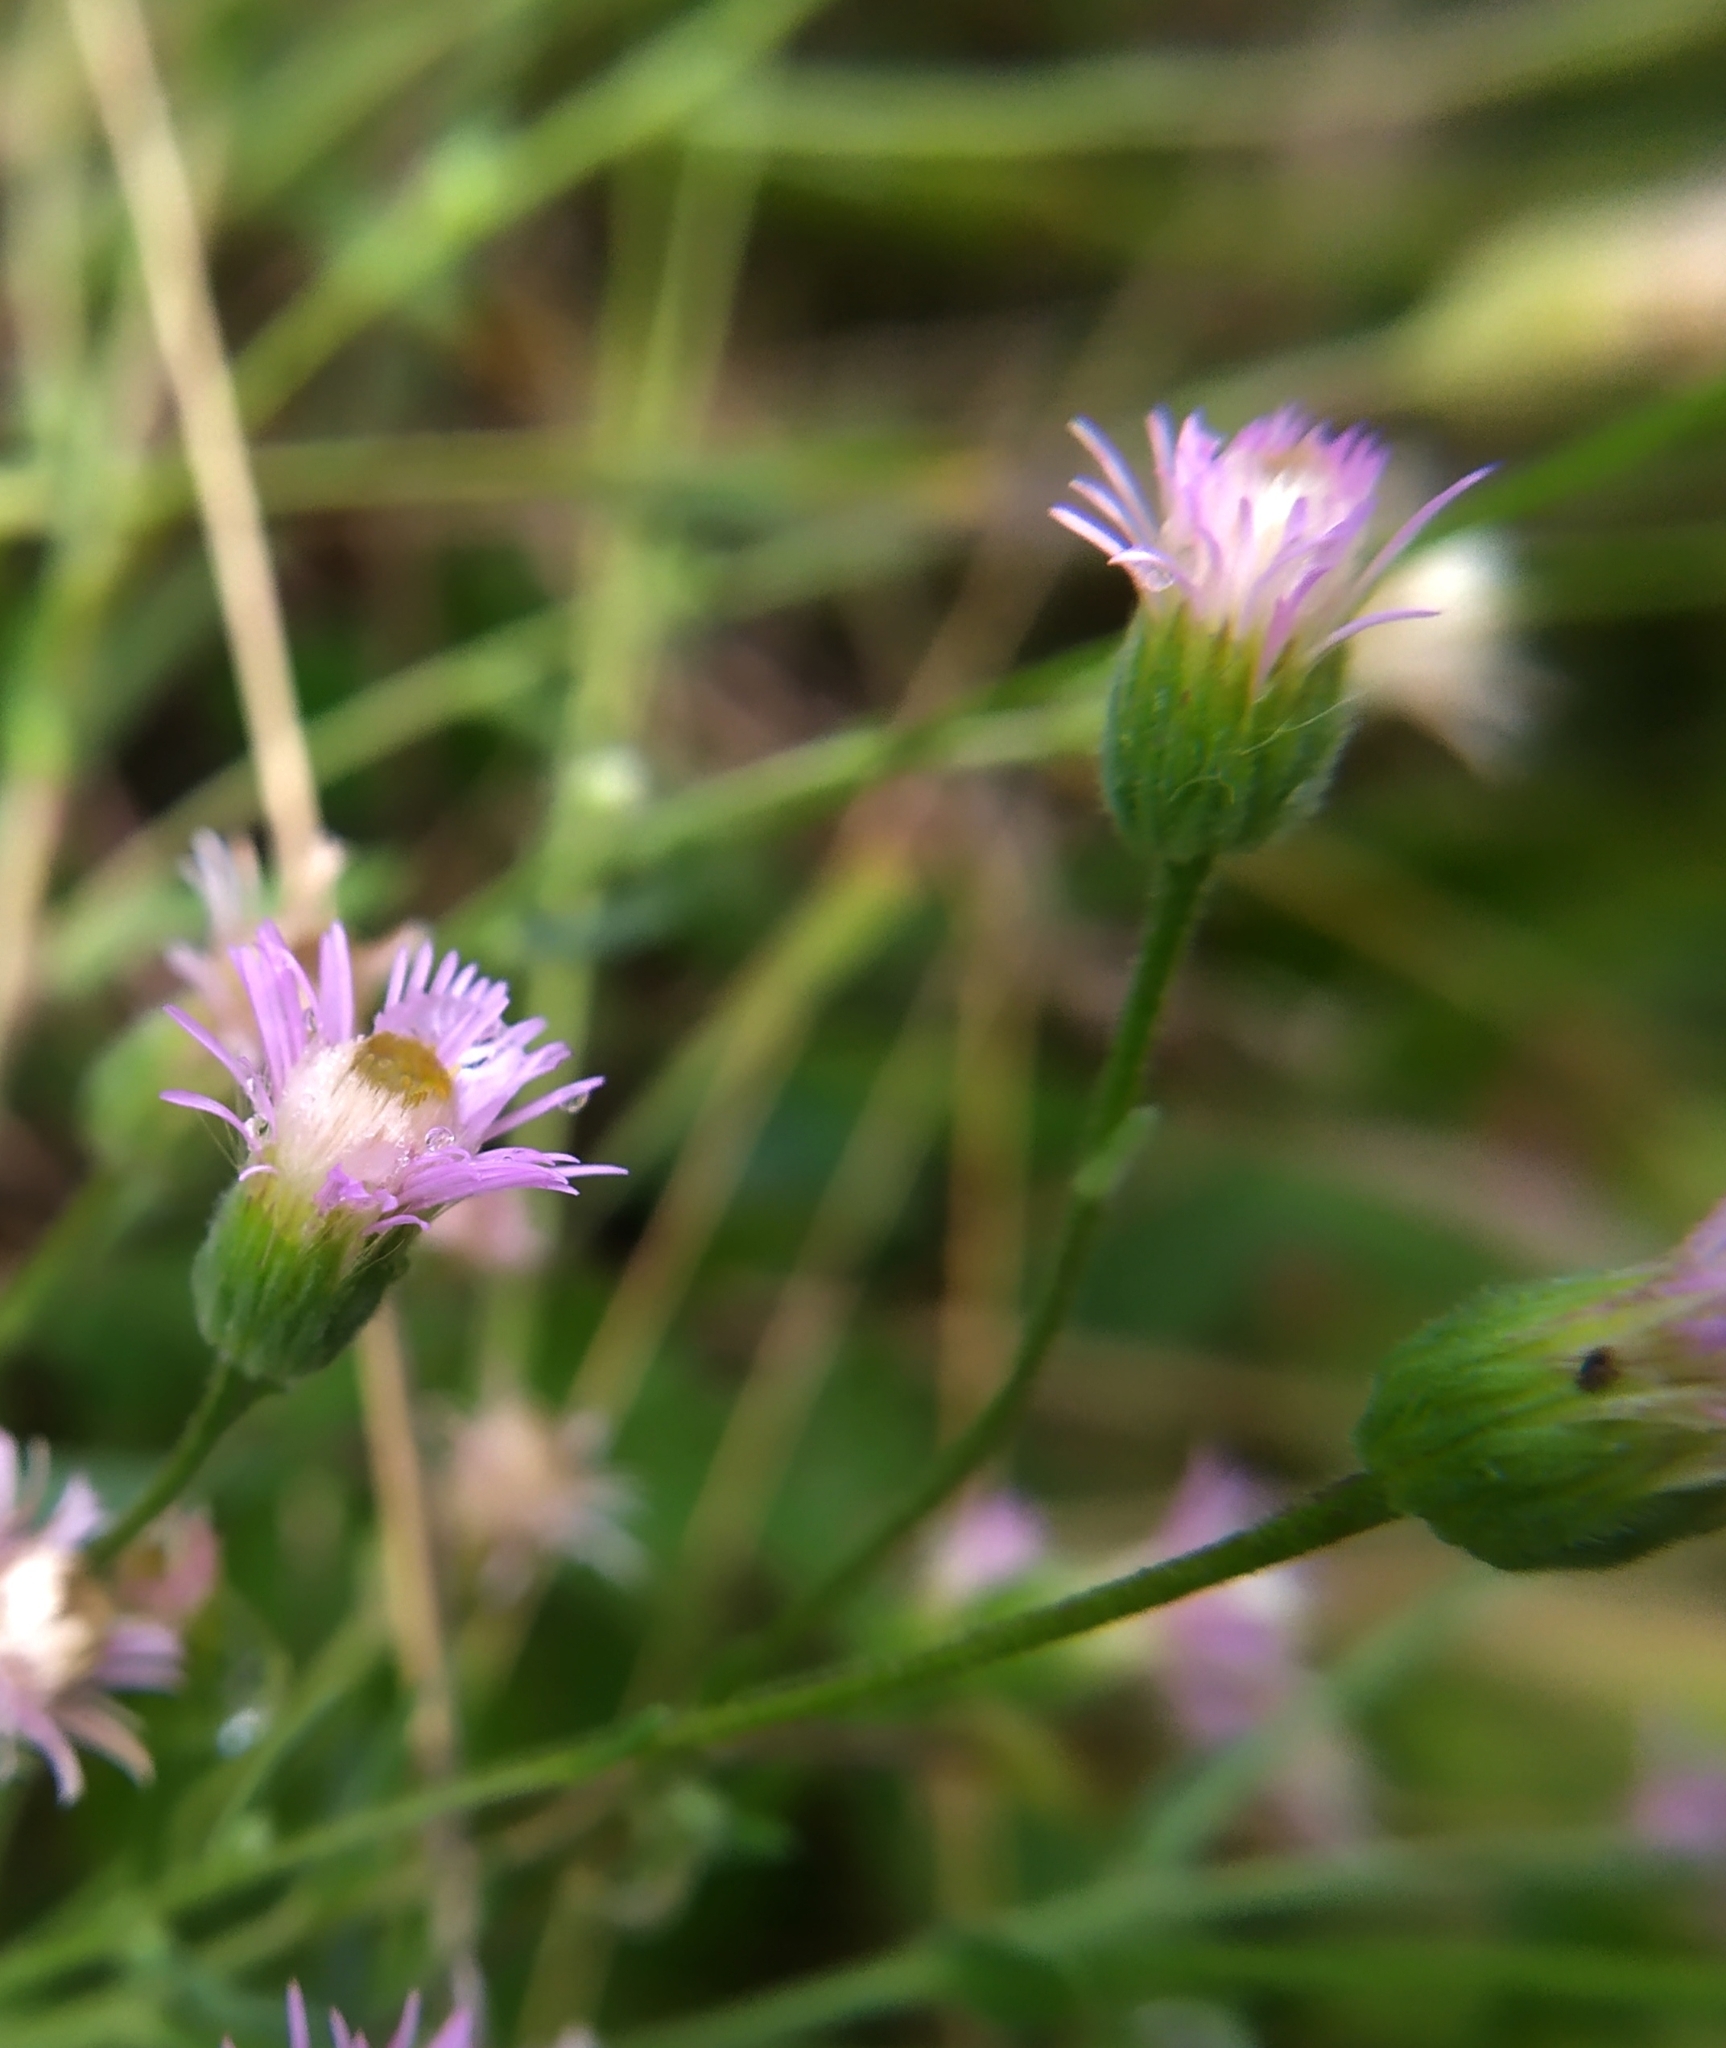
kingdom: Plantae
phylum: Tracheophyta
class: Magnoliopsida
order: Asterales
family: Asteraceae
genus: Erigeron
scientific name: Erigeron acris
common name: Blue fleabane
